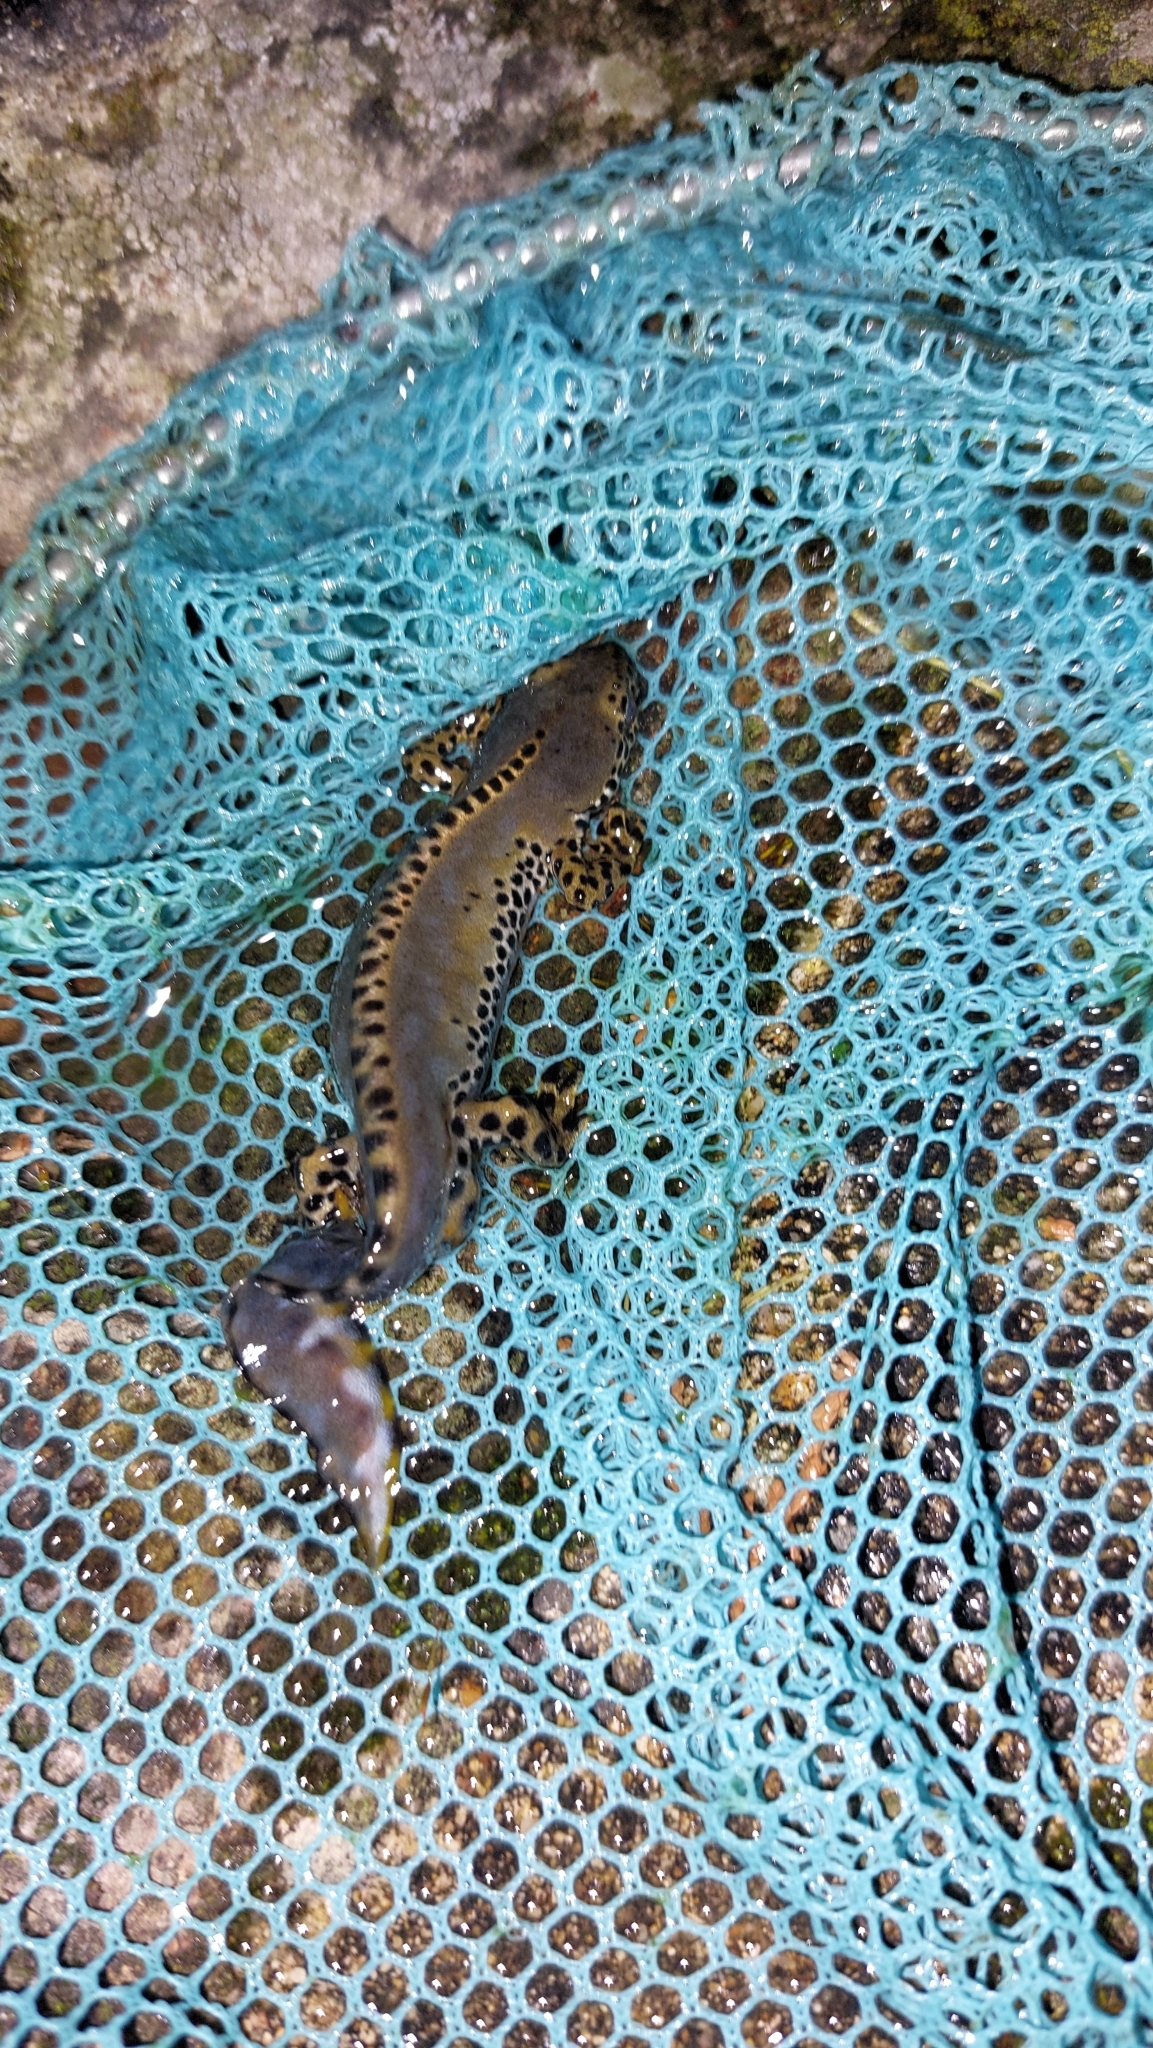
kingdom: Animalia
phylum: Chordata
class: Amphibia
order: Caudata
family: Salamandridae
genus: Ichthyosaura
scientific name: Ichthyosaura alpestris
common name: Alpine newt
